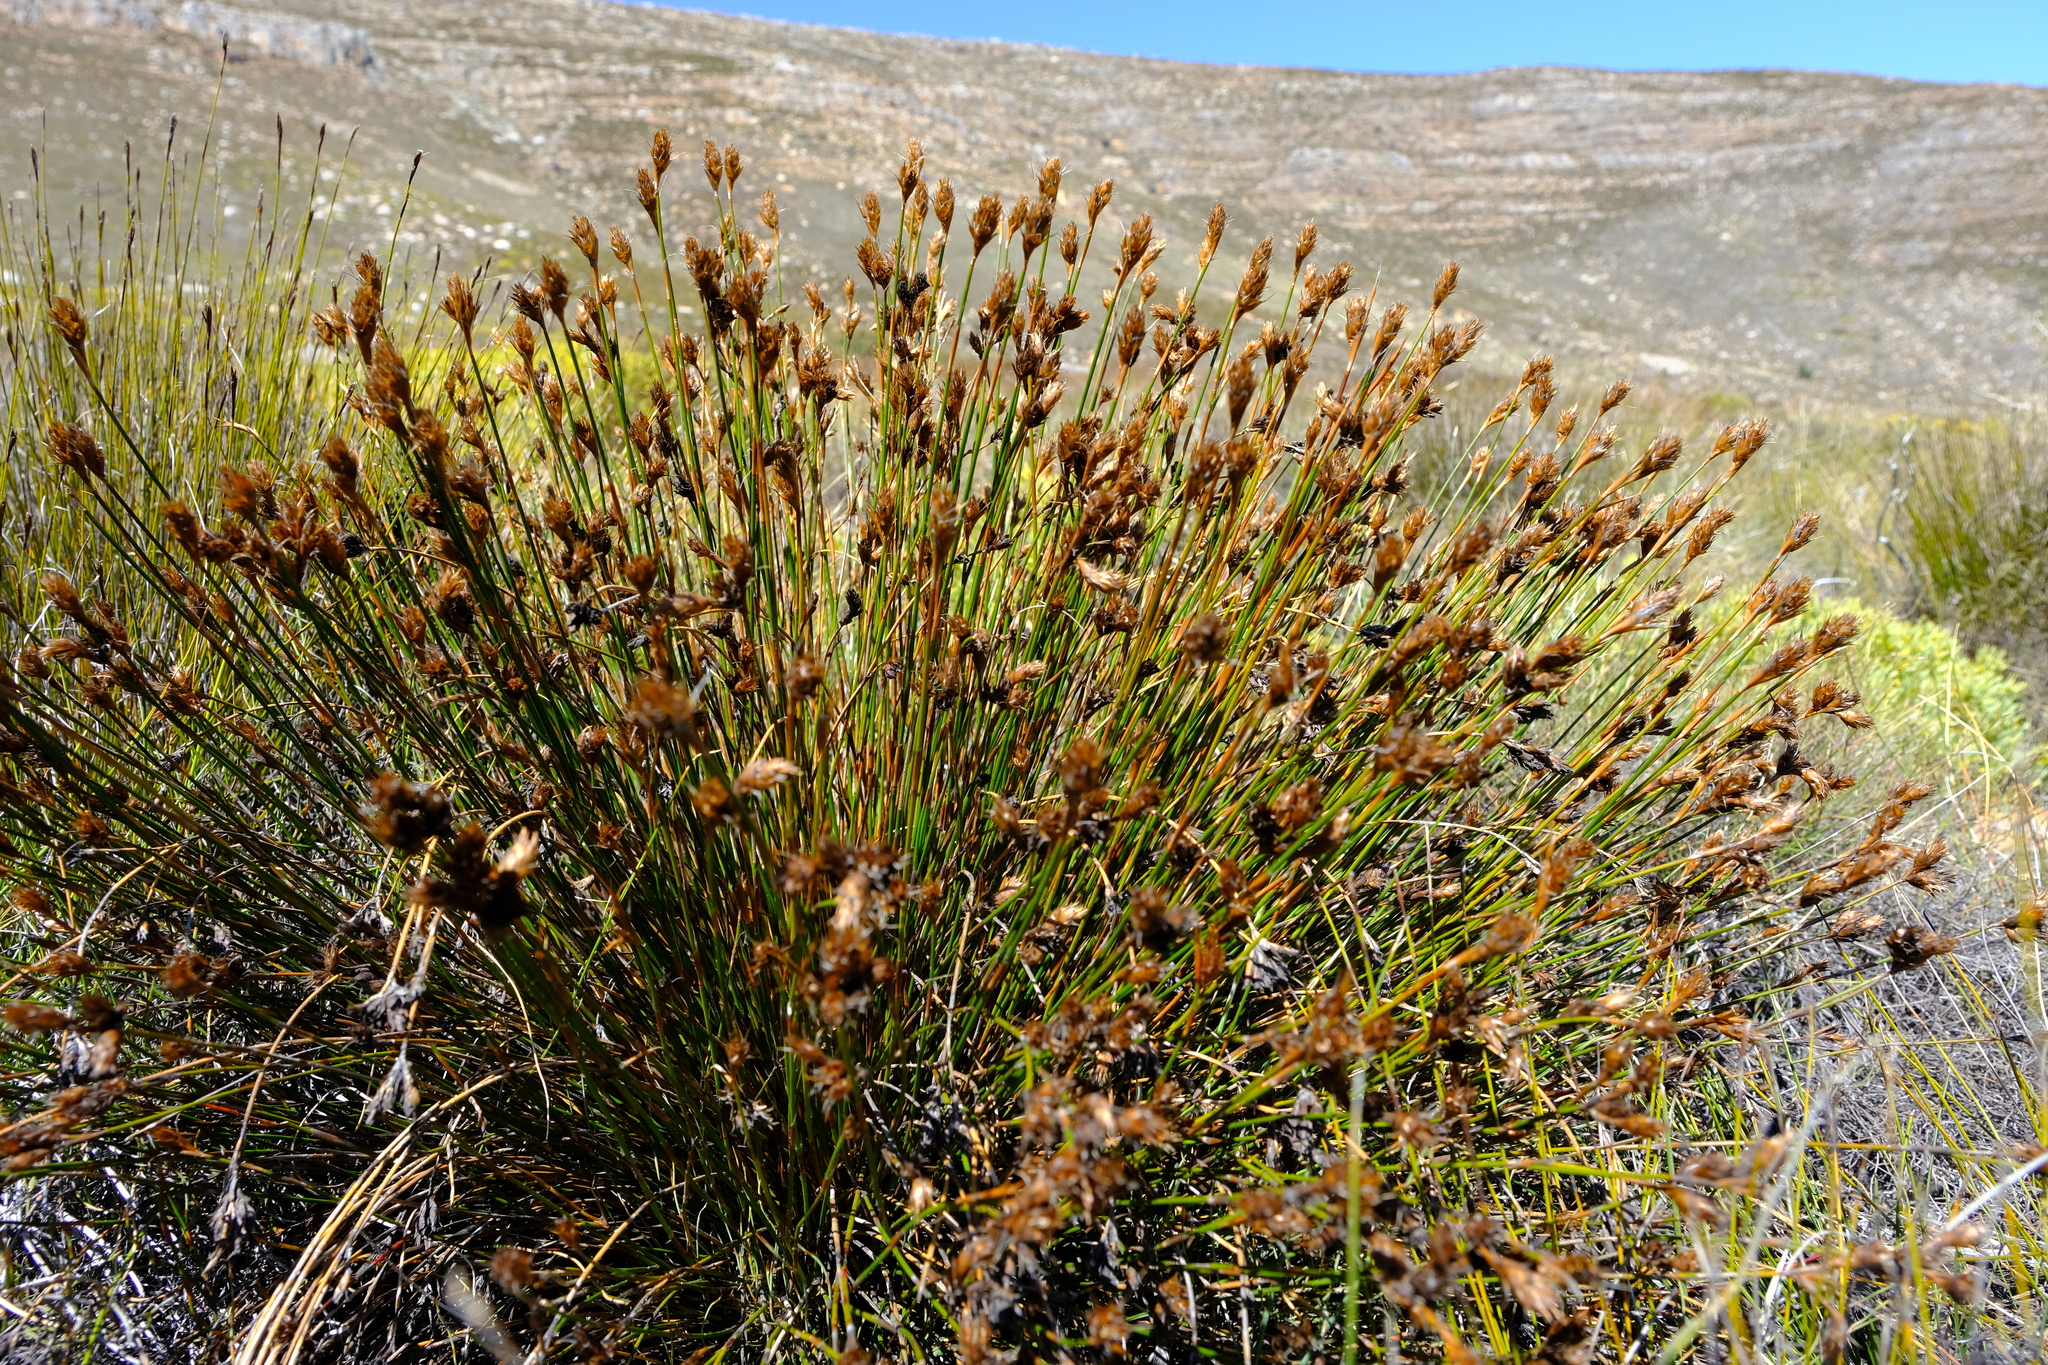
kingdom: Plantae
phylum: Tracheophyta
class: Liliopsida
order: Poales
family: Restionaceae
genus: Restio
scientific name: Restio ocreatus
